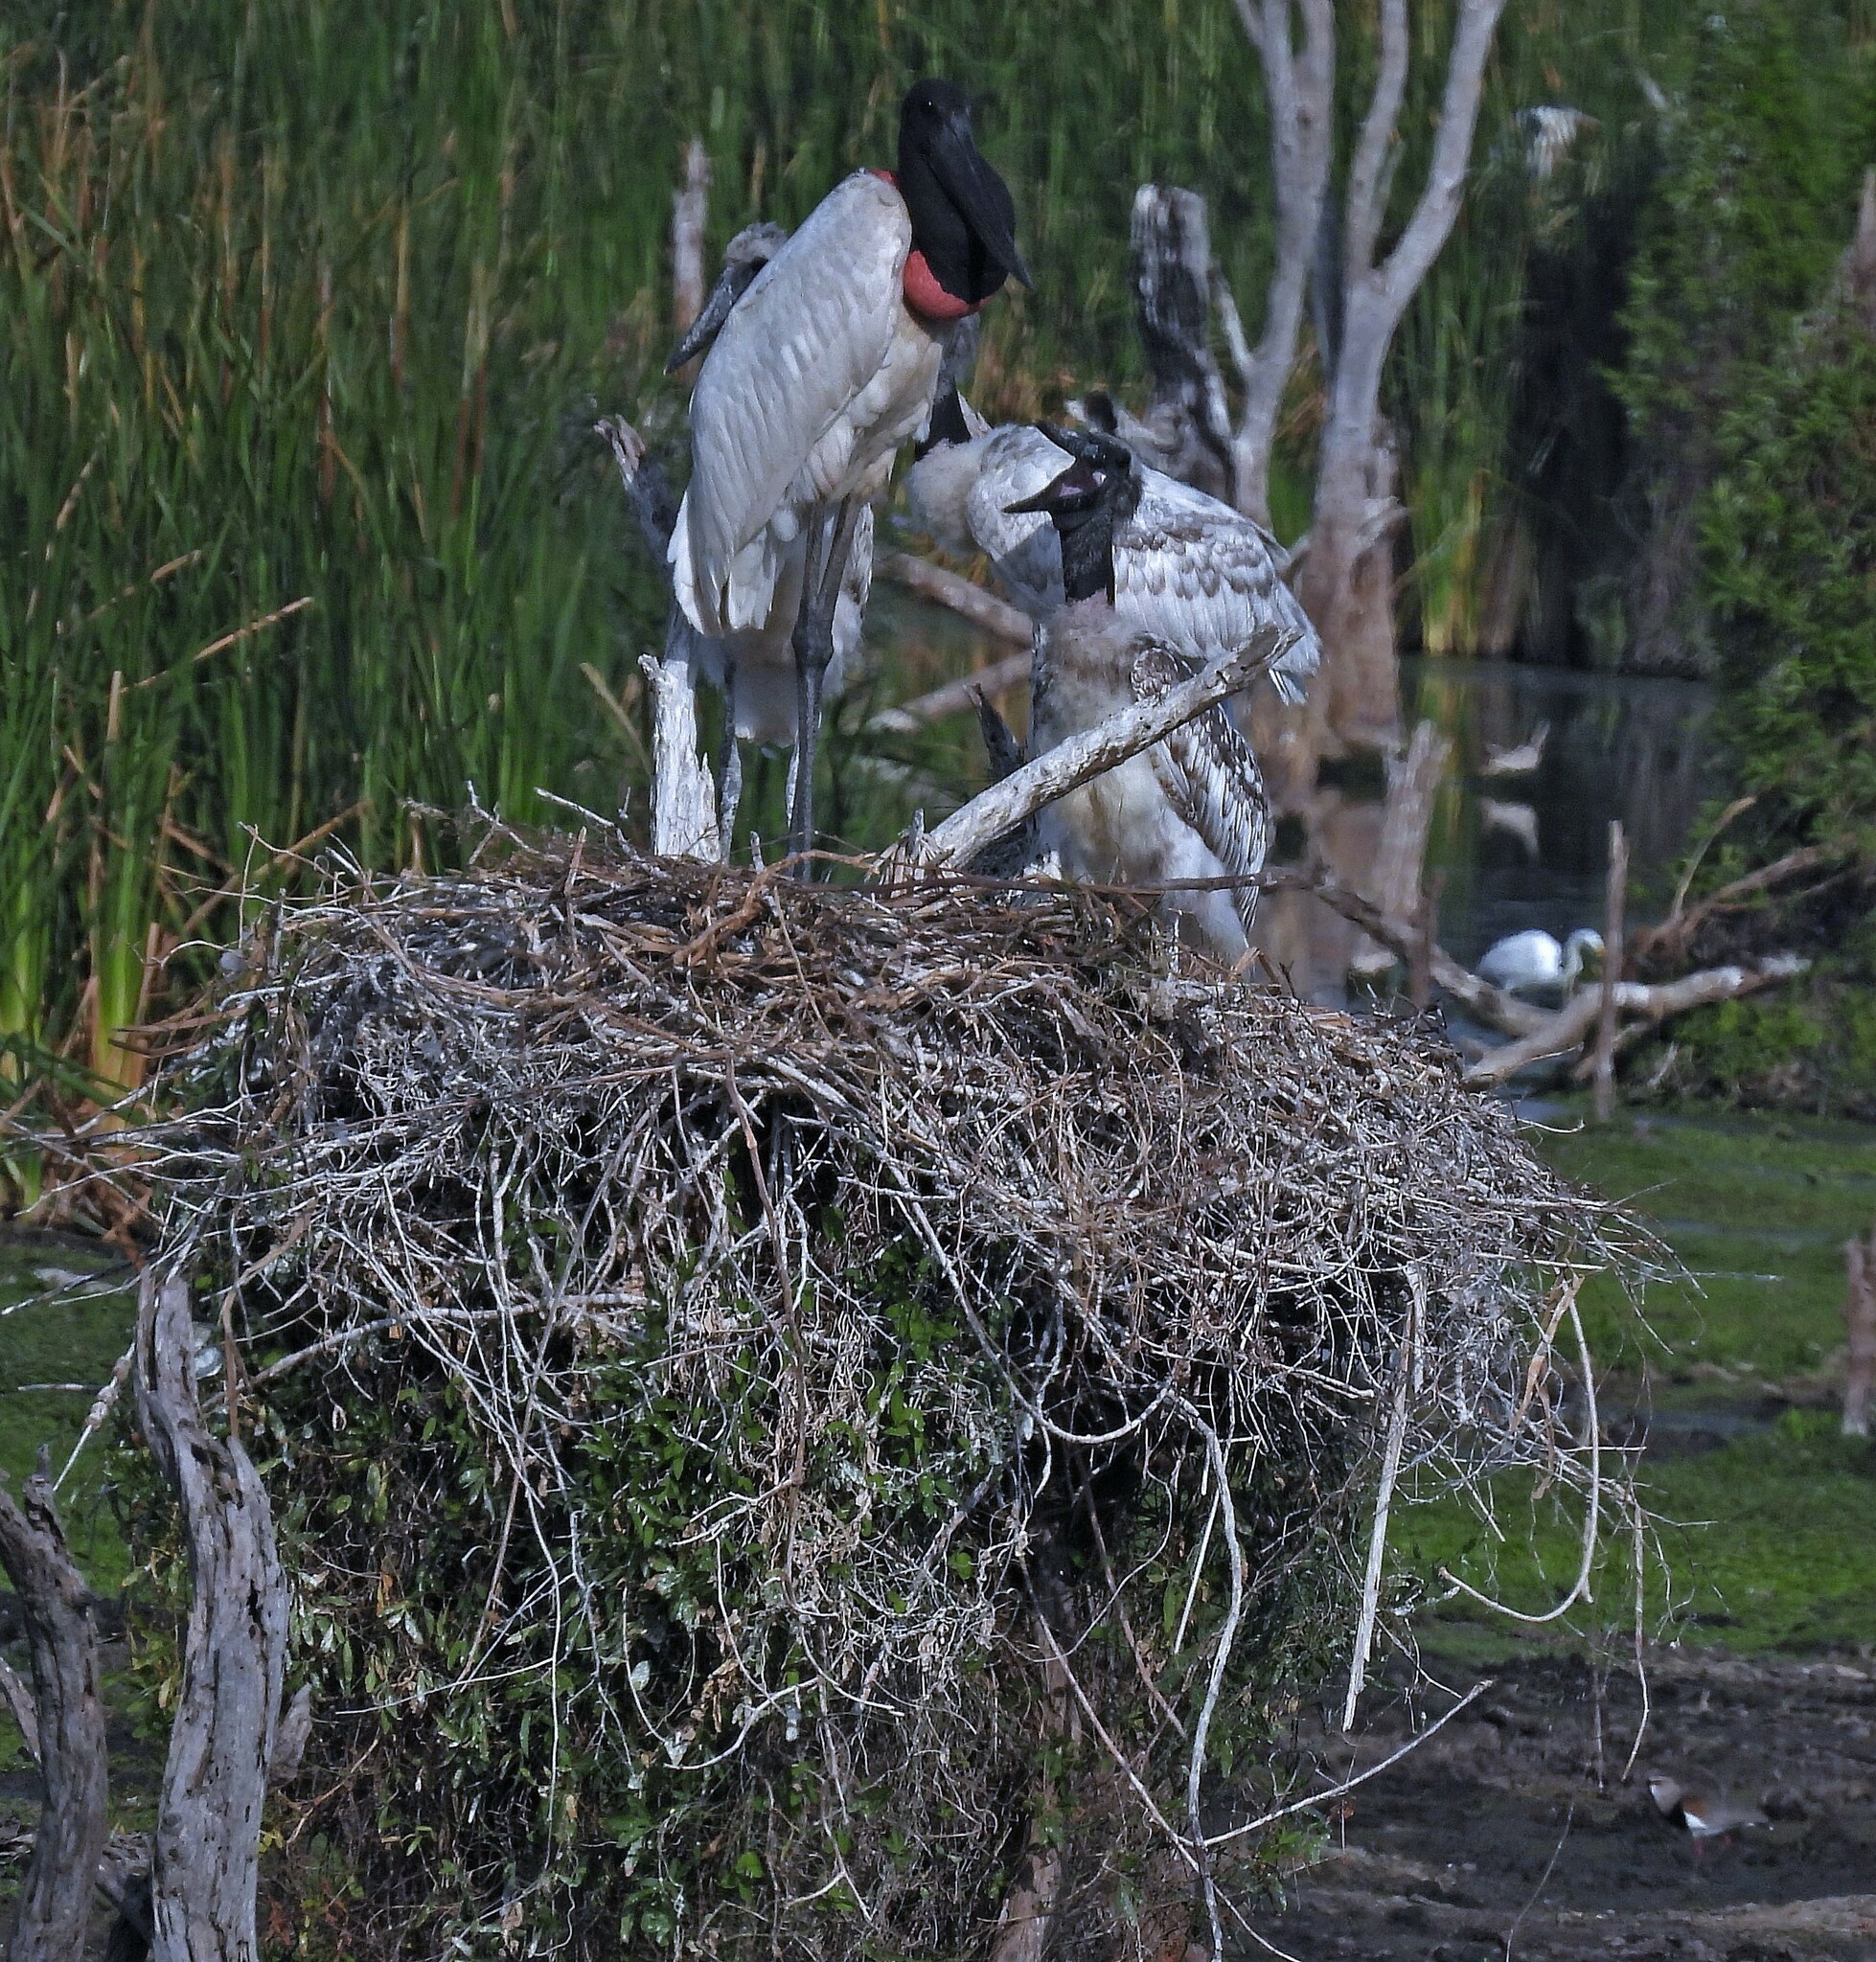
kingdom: Animalia
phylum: Chordata
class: Aves
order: Ciconiiformes
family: Ciconiidae
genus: Jabiru
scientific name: Jabiru mycteria
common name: Jabiru
